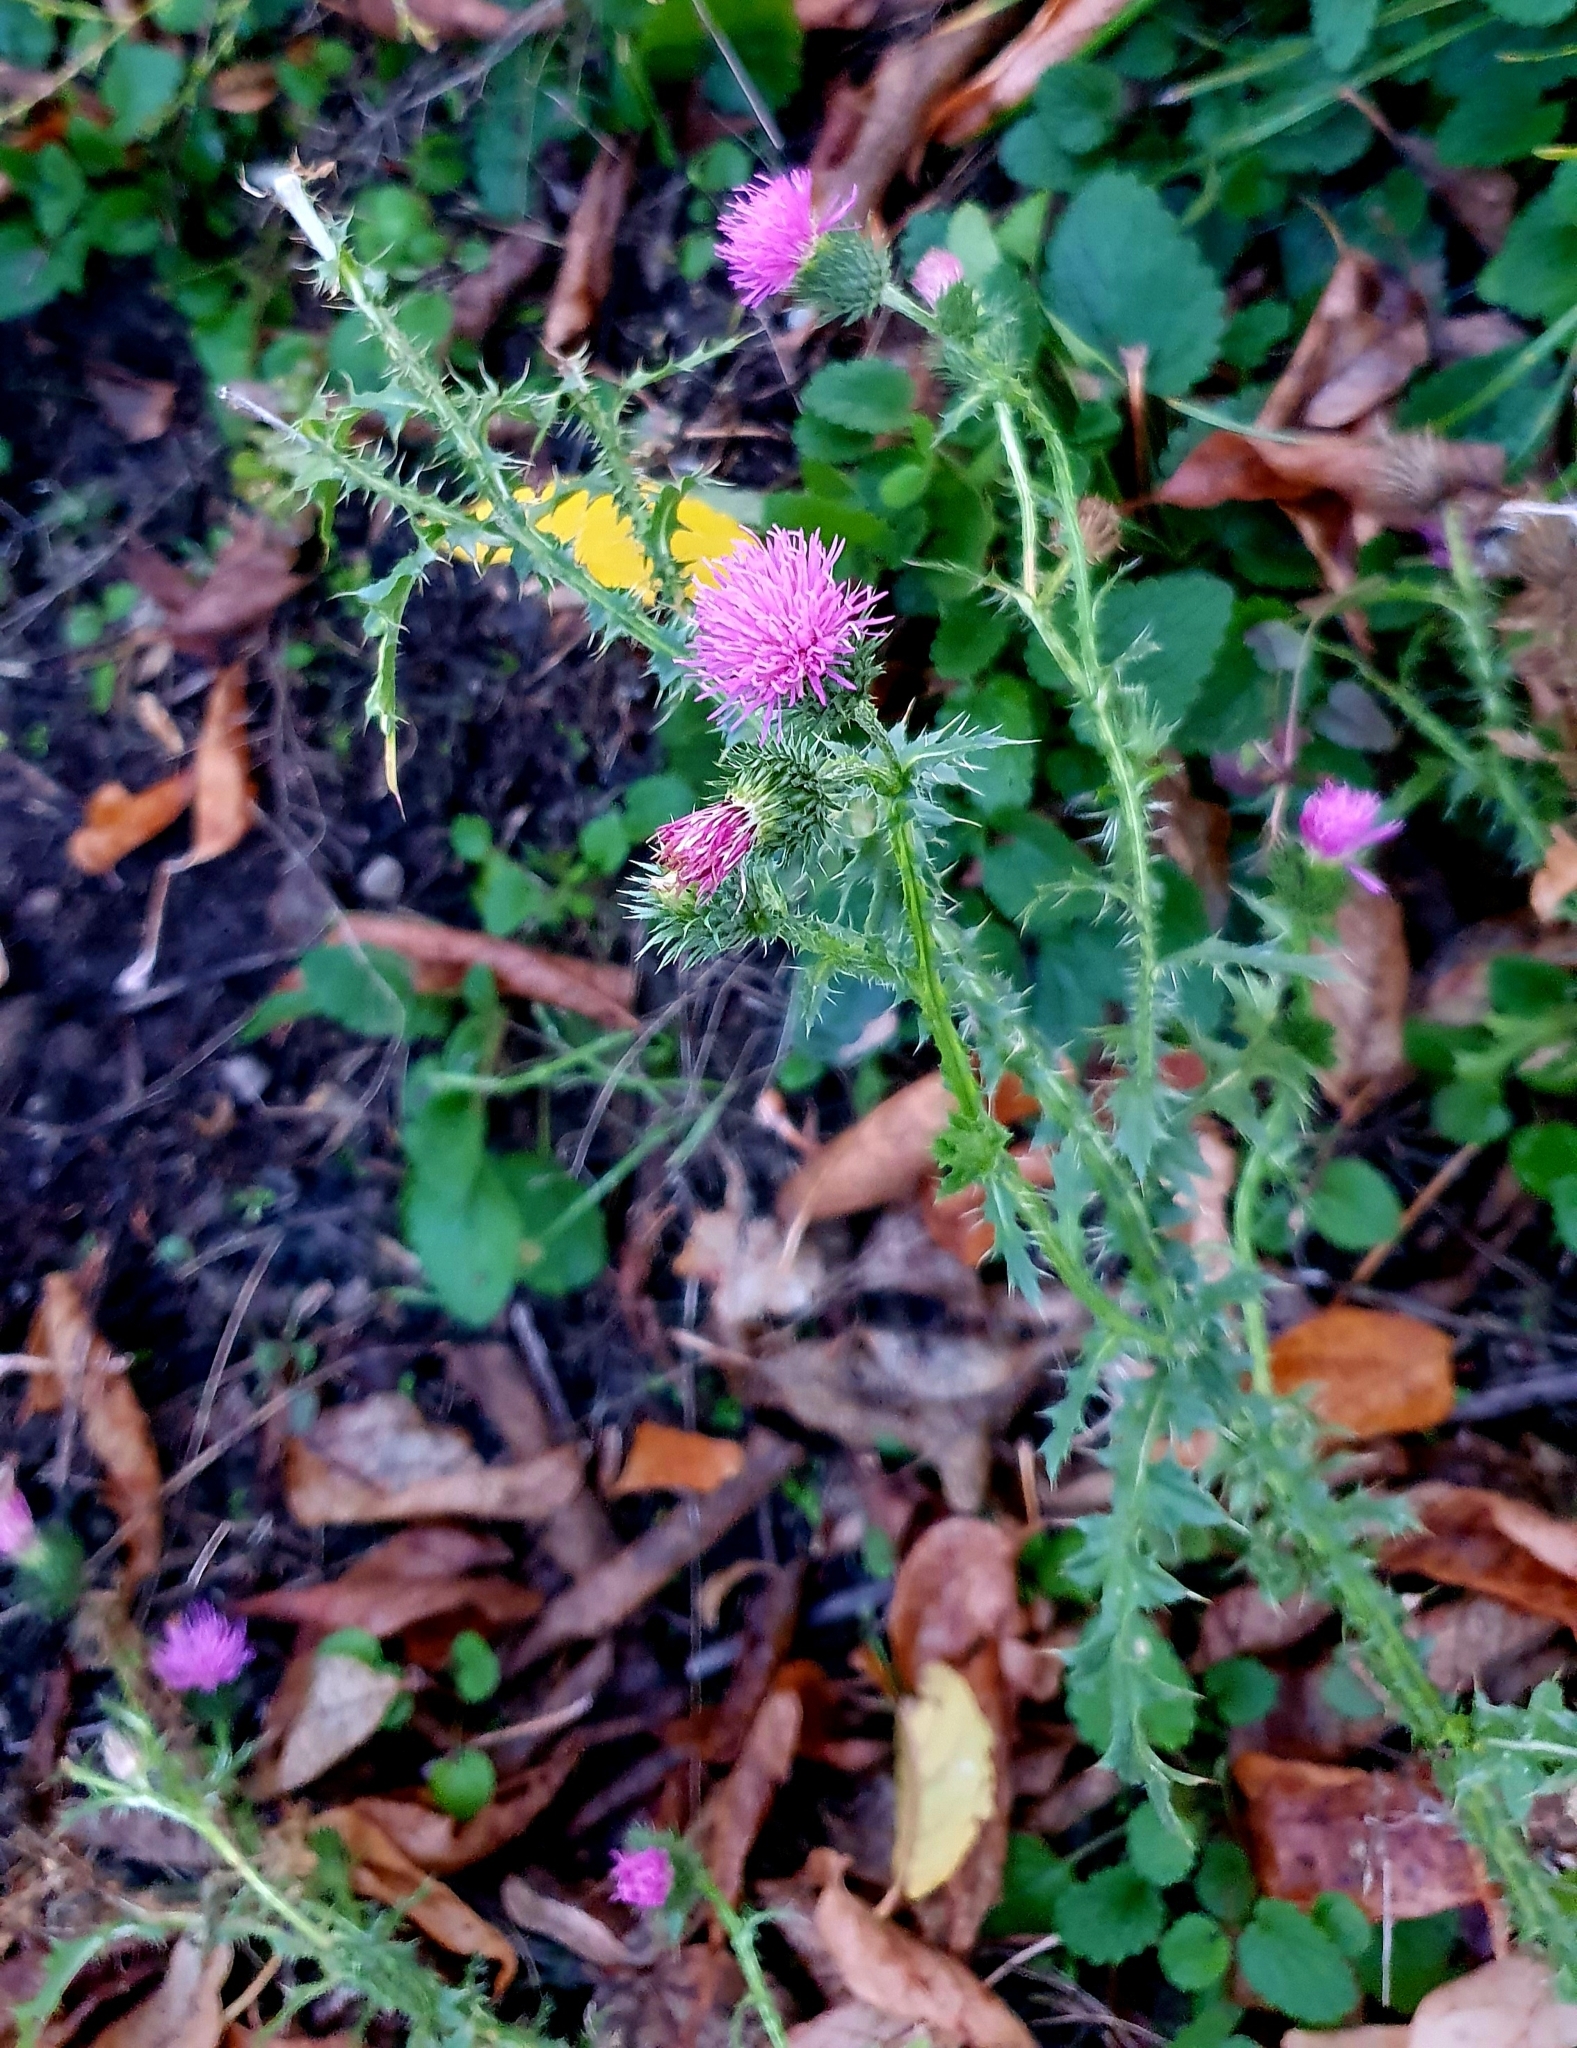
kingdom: Plantae
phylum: Tracheophyta
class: Magnoliopsida
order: Asterales
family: Asteraceae
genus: Carduus
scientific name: Carduus acanthoides
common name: Plumeless thistle
